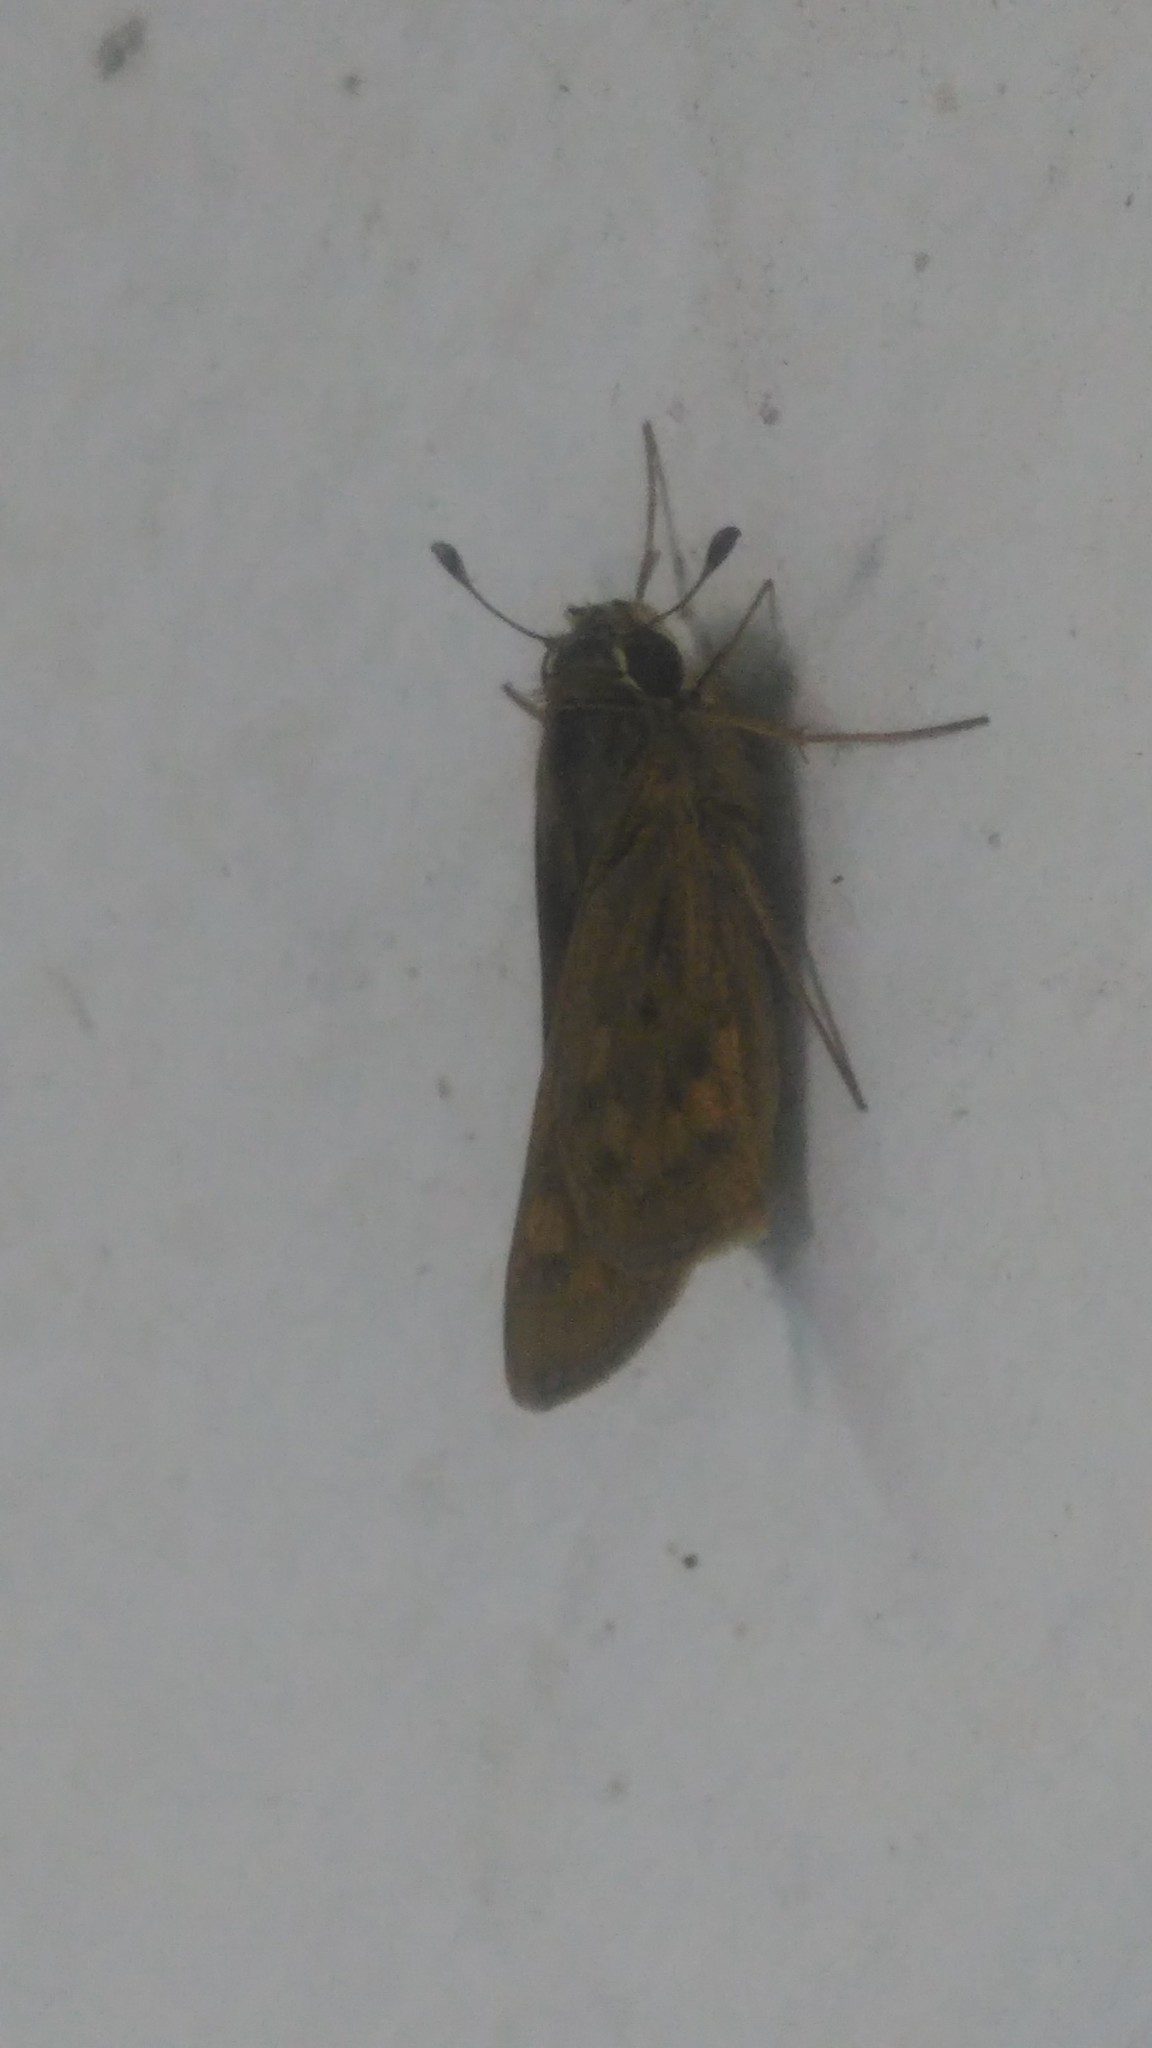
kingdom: Animalia
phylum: Arthropoda
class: Insecta
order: Lepidoptera
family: Hesperiidae
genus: Hylephila
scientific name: Hylephila phyleus
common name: Fiery skipper
